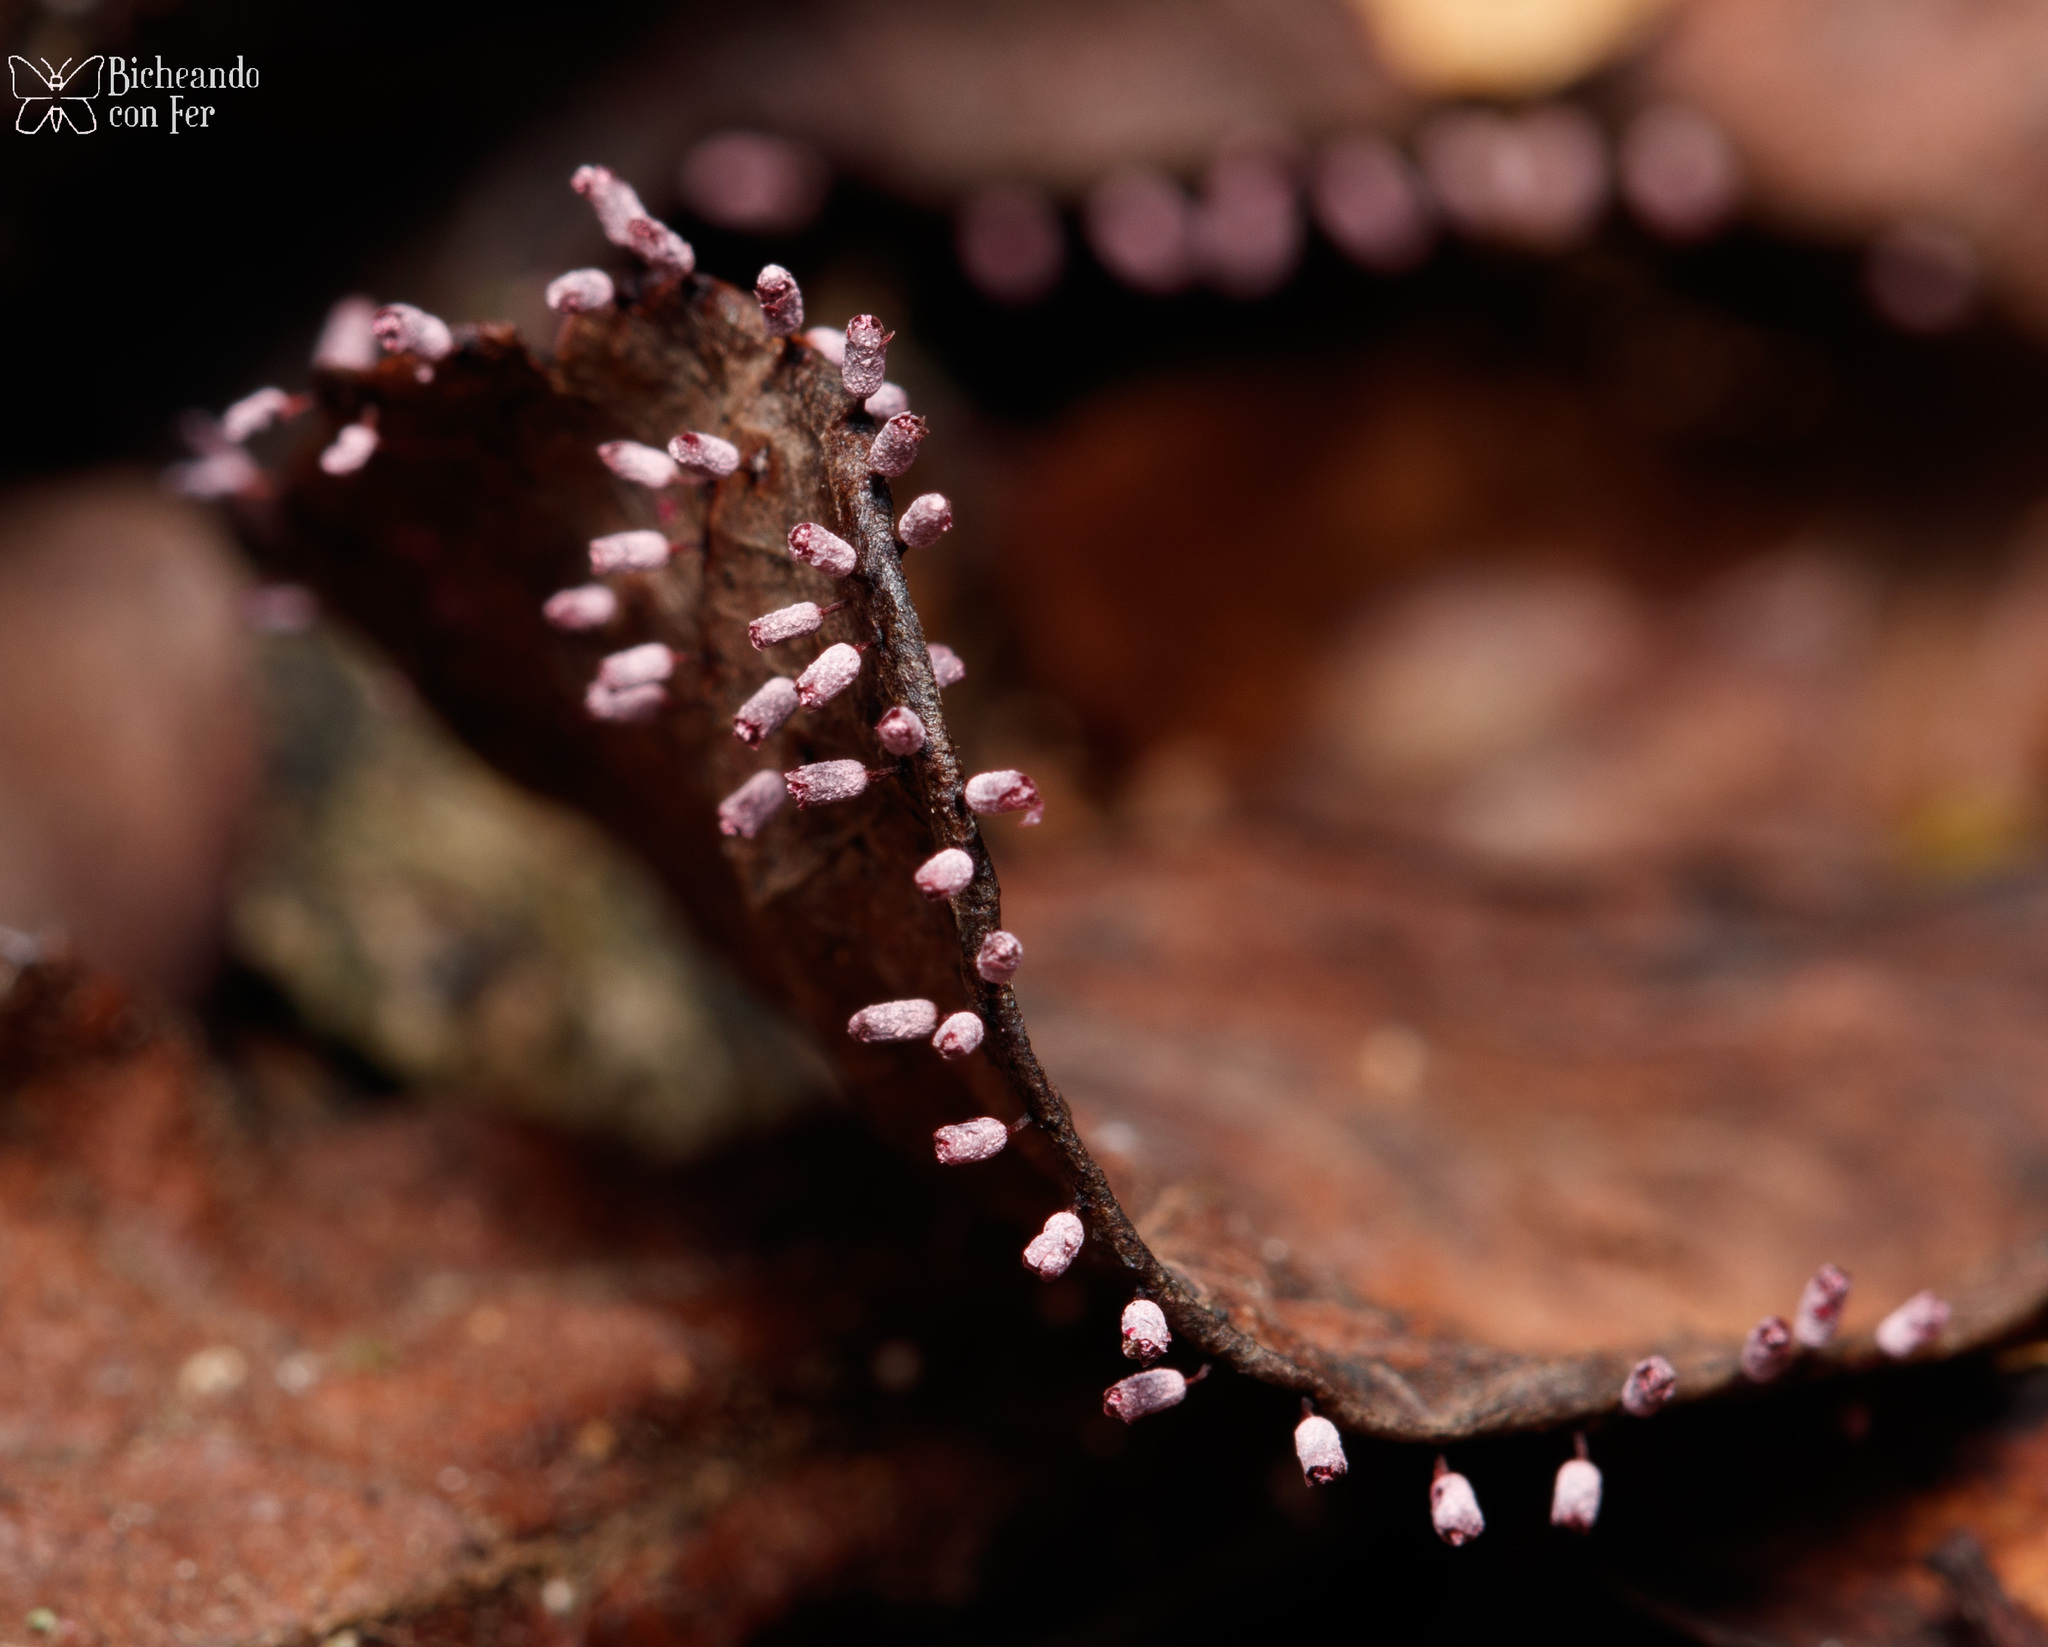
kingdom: Protozoa
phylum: Mycetozoa
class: Myxomycetes
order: Physarales
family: Physaraceae
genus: Craterium
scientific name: Craterium paraguayense
